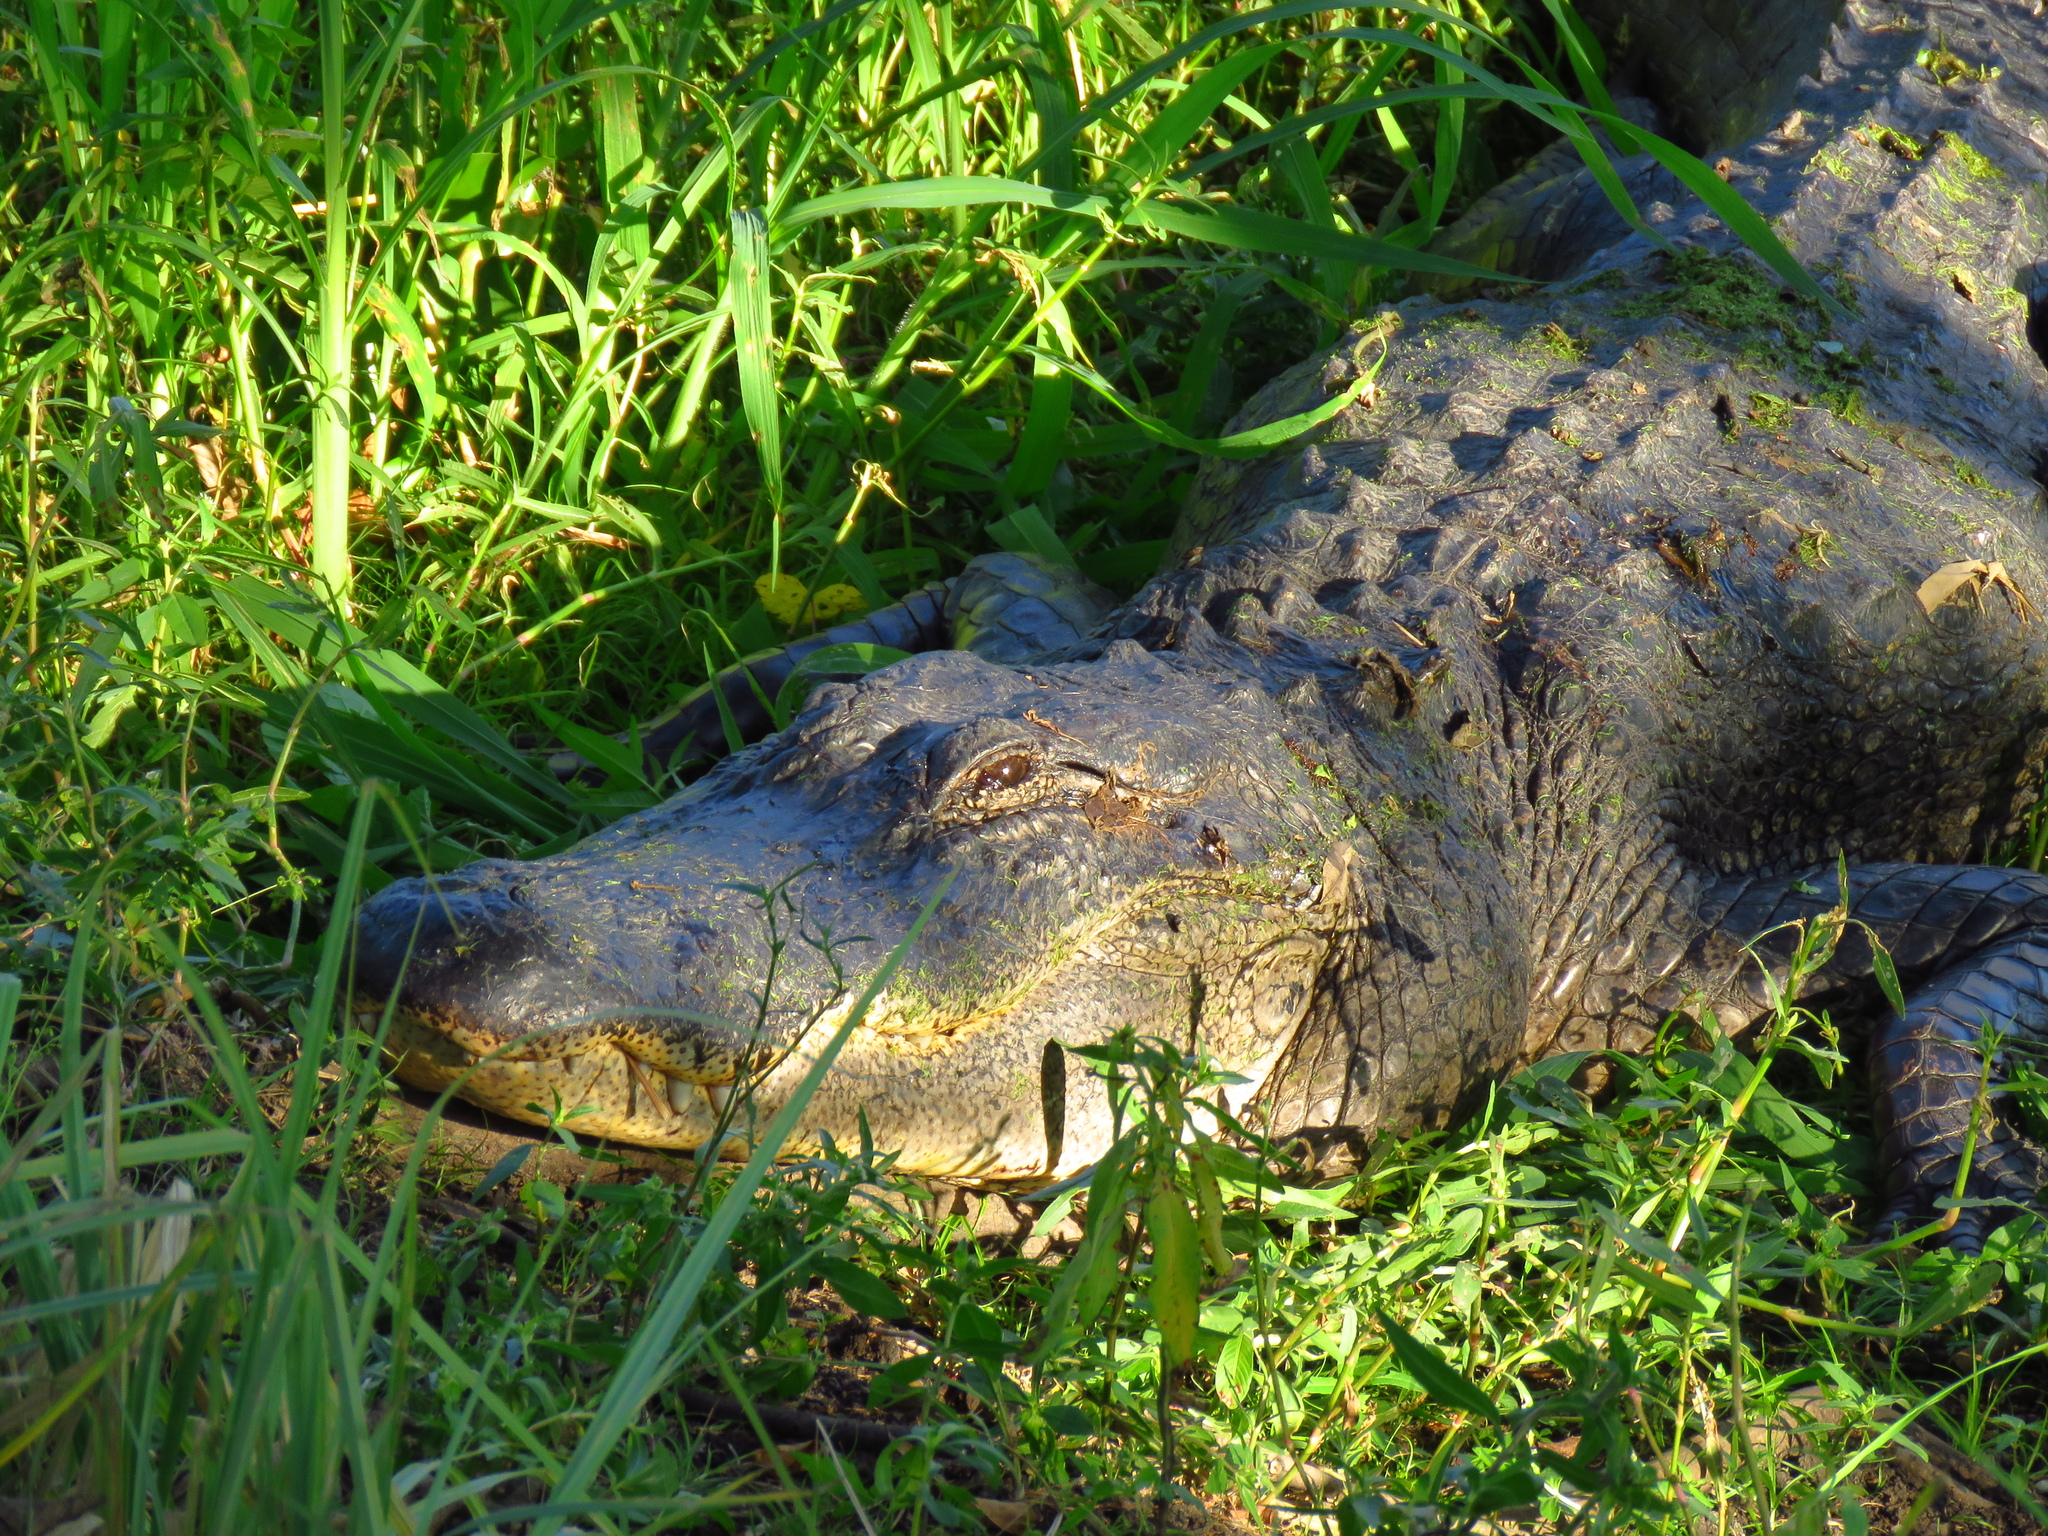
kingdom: Animalia
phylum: Chordata
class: Crocodylia
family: Alligatoridae
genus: Alligator
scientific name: Alligator mississippiensis
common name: American alligator
